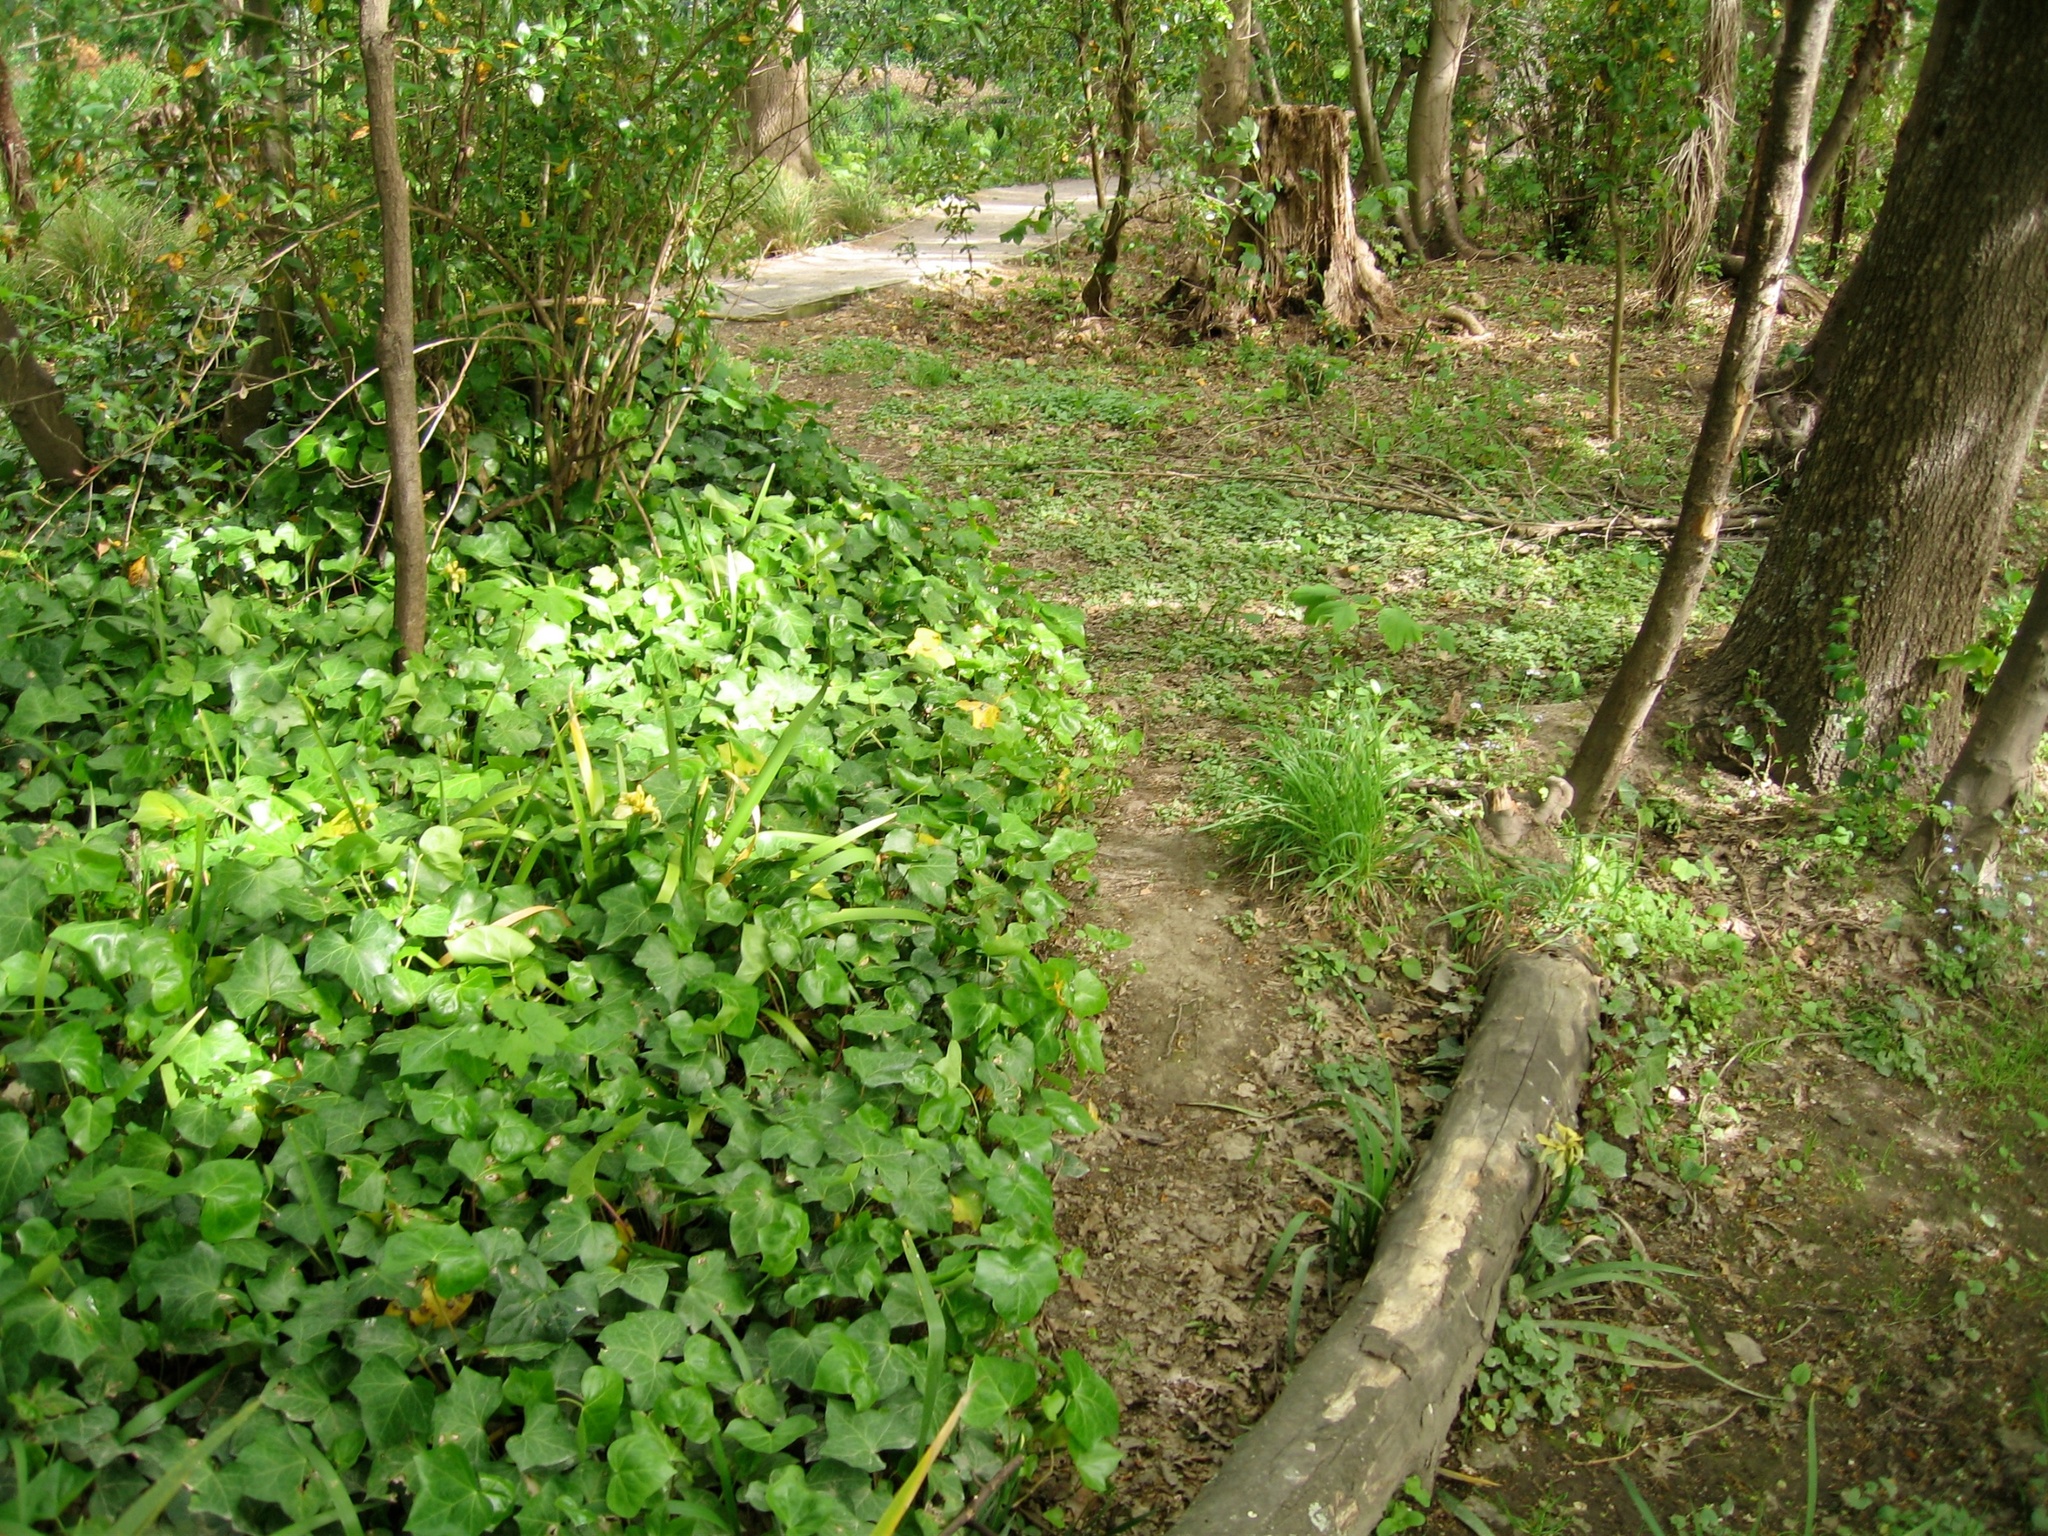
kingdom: Plantae
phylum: Tracheophyta
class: Magnoliopsida
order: Apiales
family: Araliaceae
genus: Hedera
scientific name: Hedera helix
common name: Ivy
